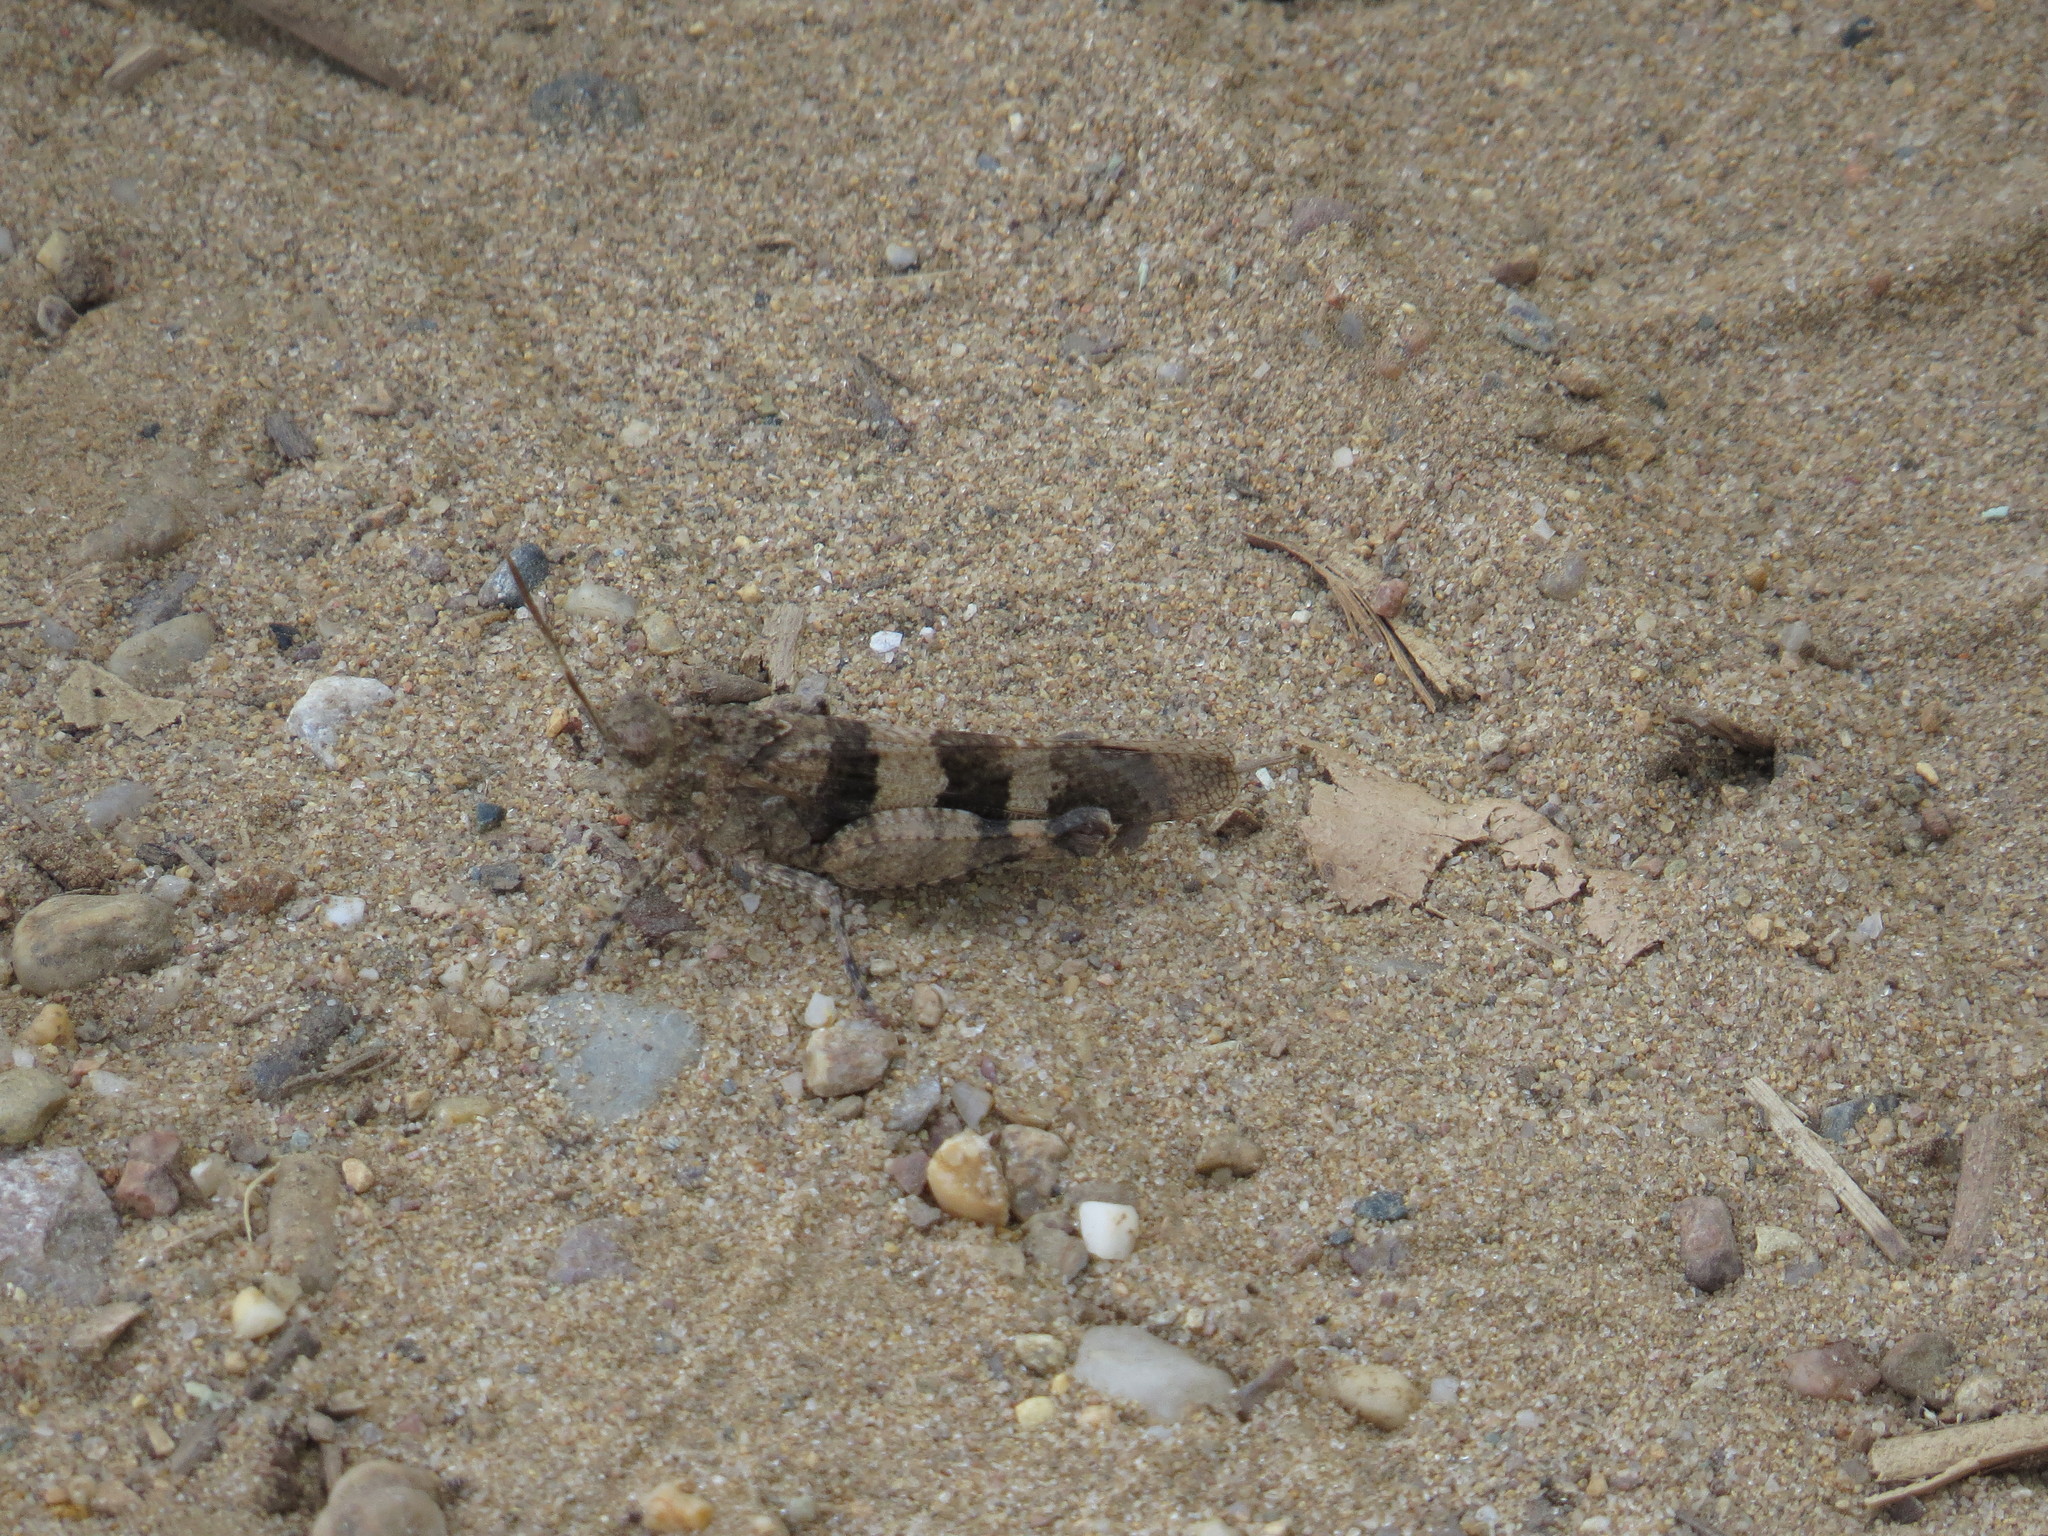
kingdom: Animalia
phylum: Arthropoda
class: Insecta
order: Orthoptera
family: Acrididae
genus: Oedipoda
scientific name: Oedipoda caerulescens
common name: Blue-winged grasshopper
